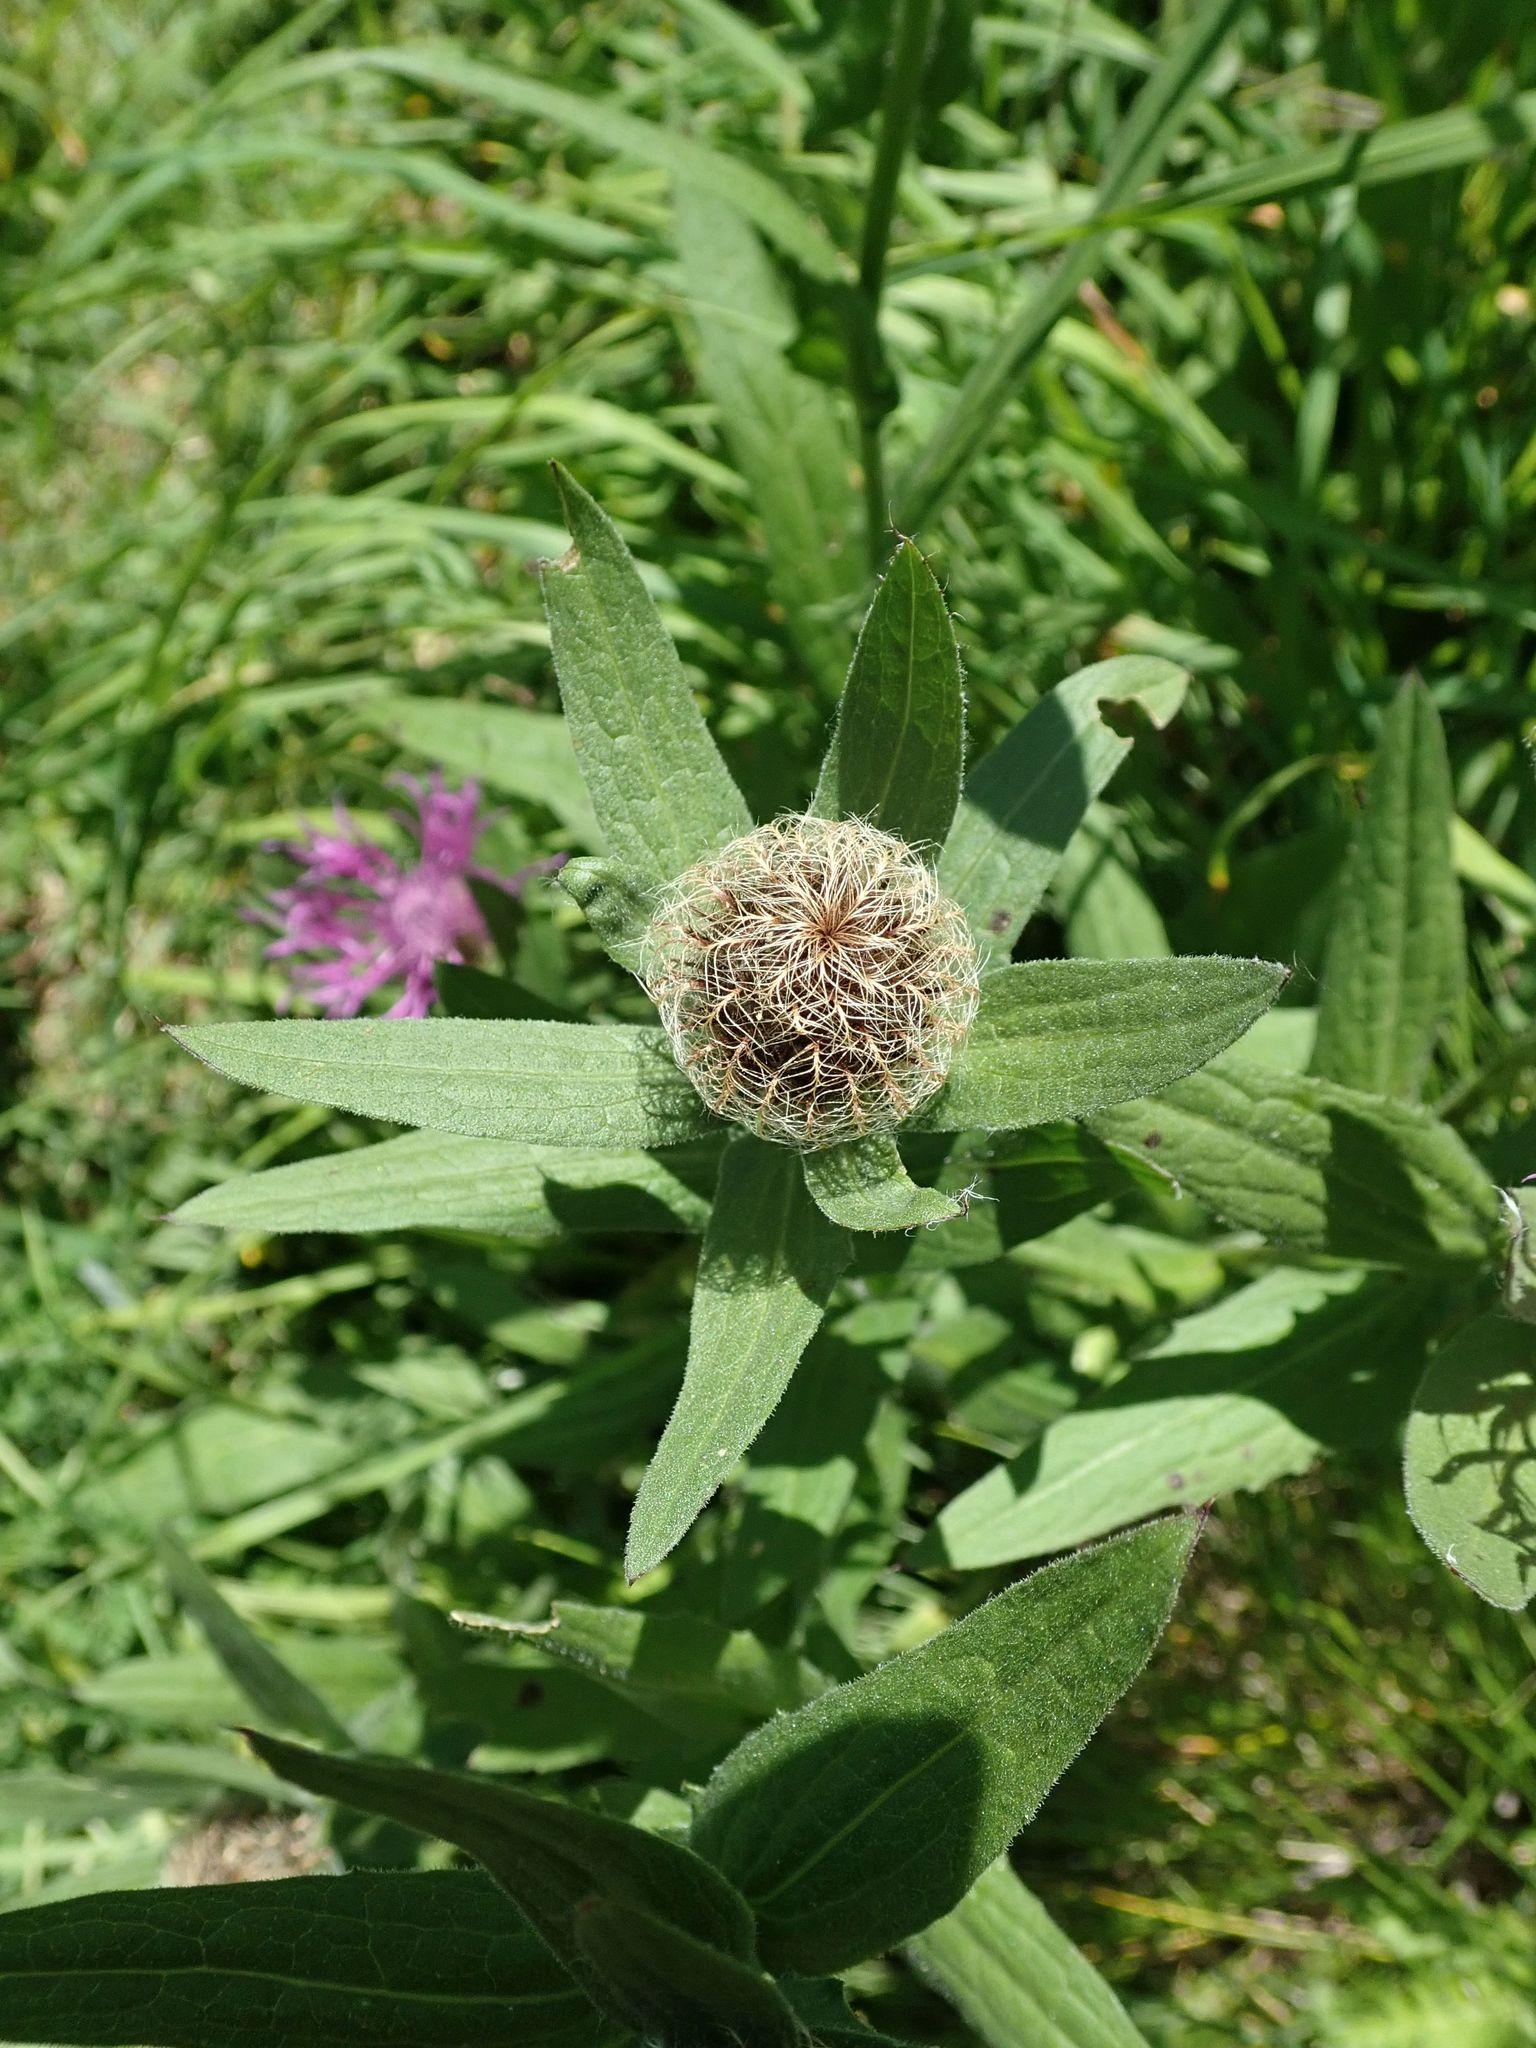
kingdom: Plantae
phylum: Tracheophyta
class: Magnoliopsida
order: Asterales
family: Asteraceae
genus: Centaurea
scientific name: Centaurea nervosa
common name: Singleflower knapweed
